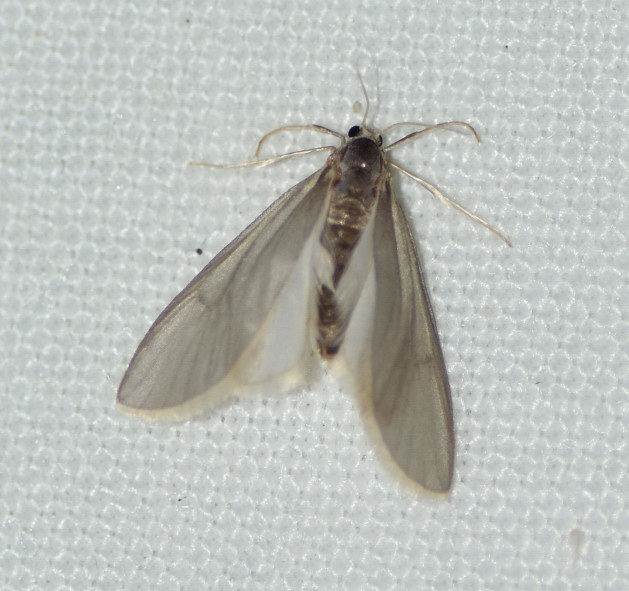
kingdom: Animalia
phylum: Arthropoda
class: Insecta
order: Lepidoptera
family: Crambidae
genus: Acentria
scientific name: Acentria ephemerella
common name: European water moth
